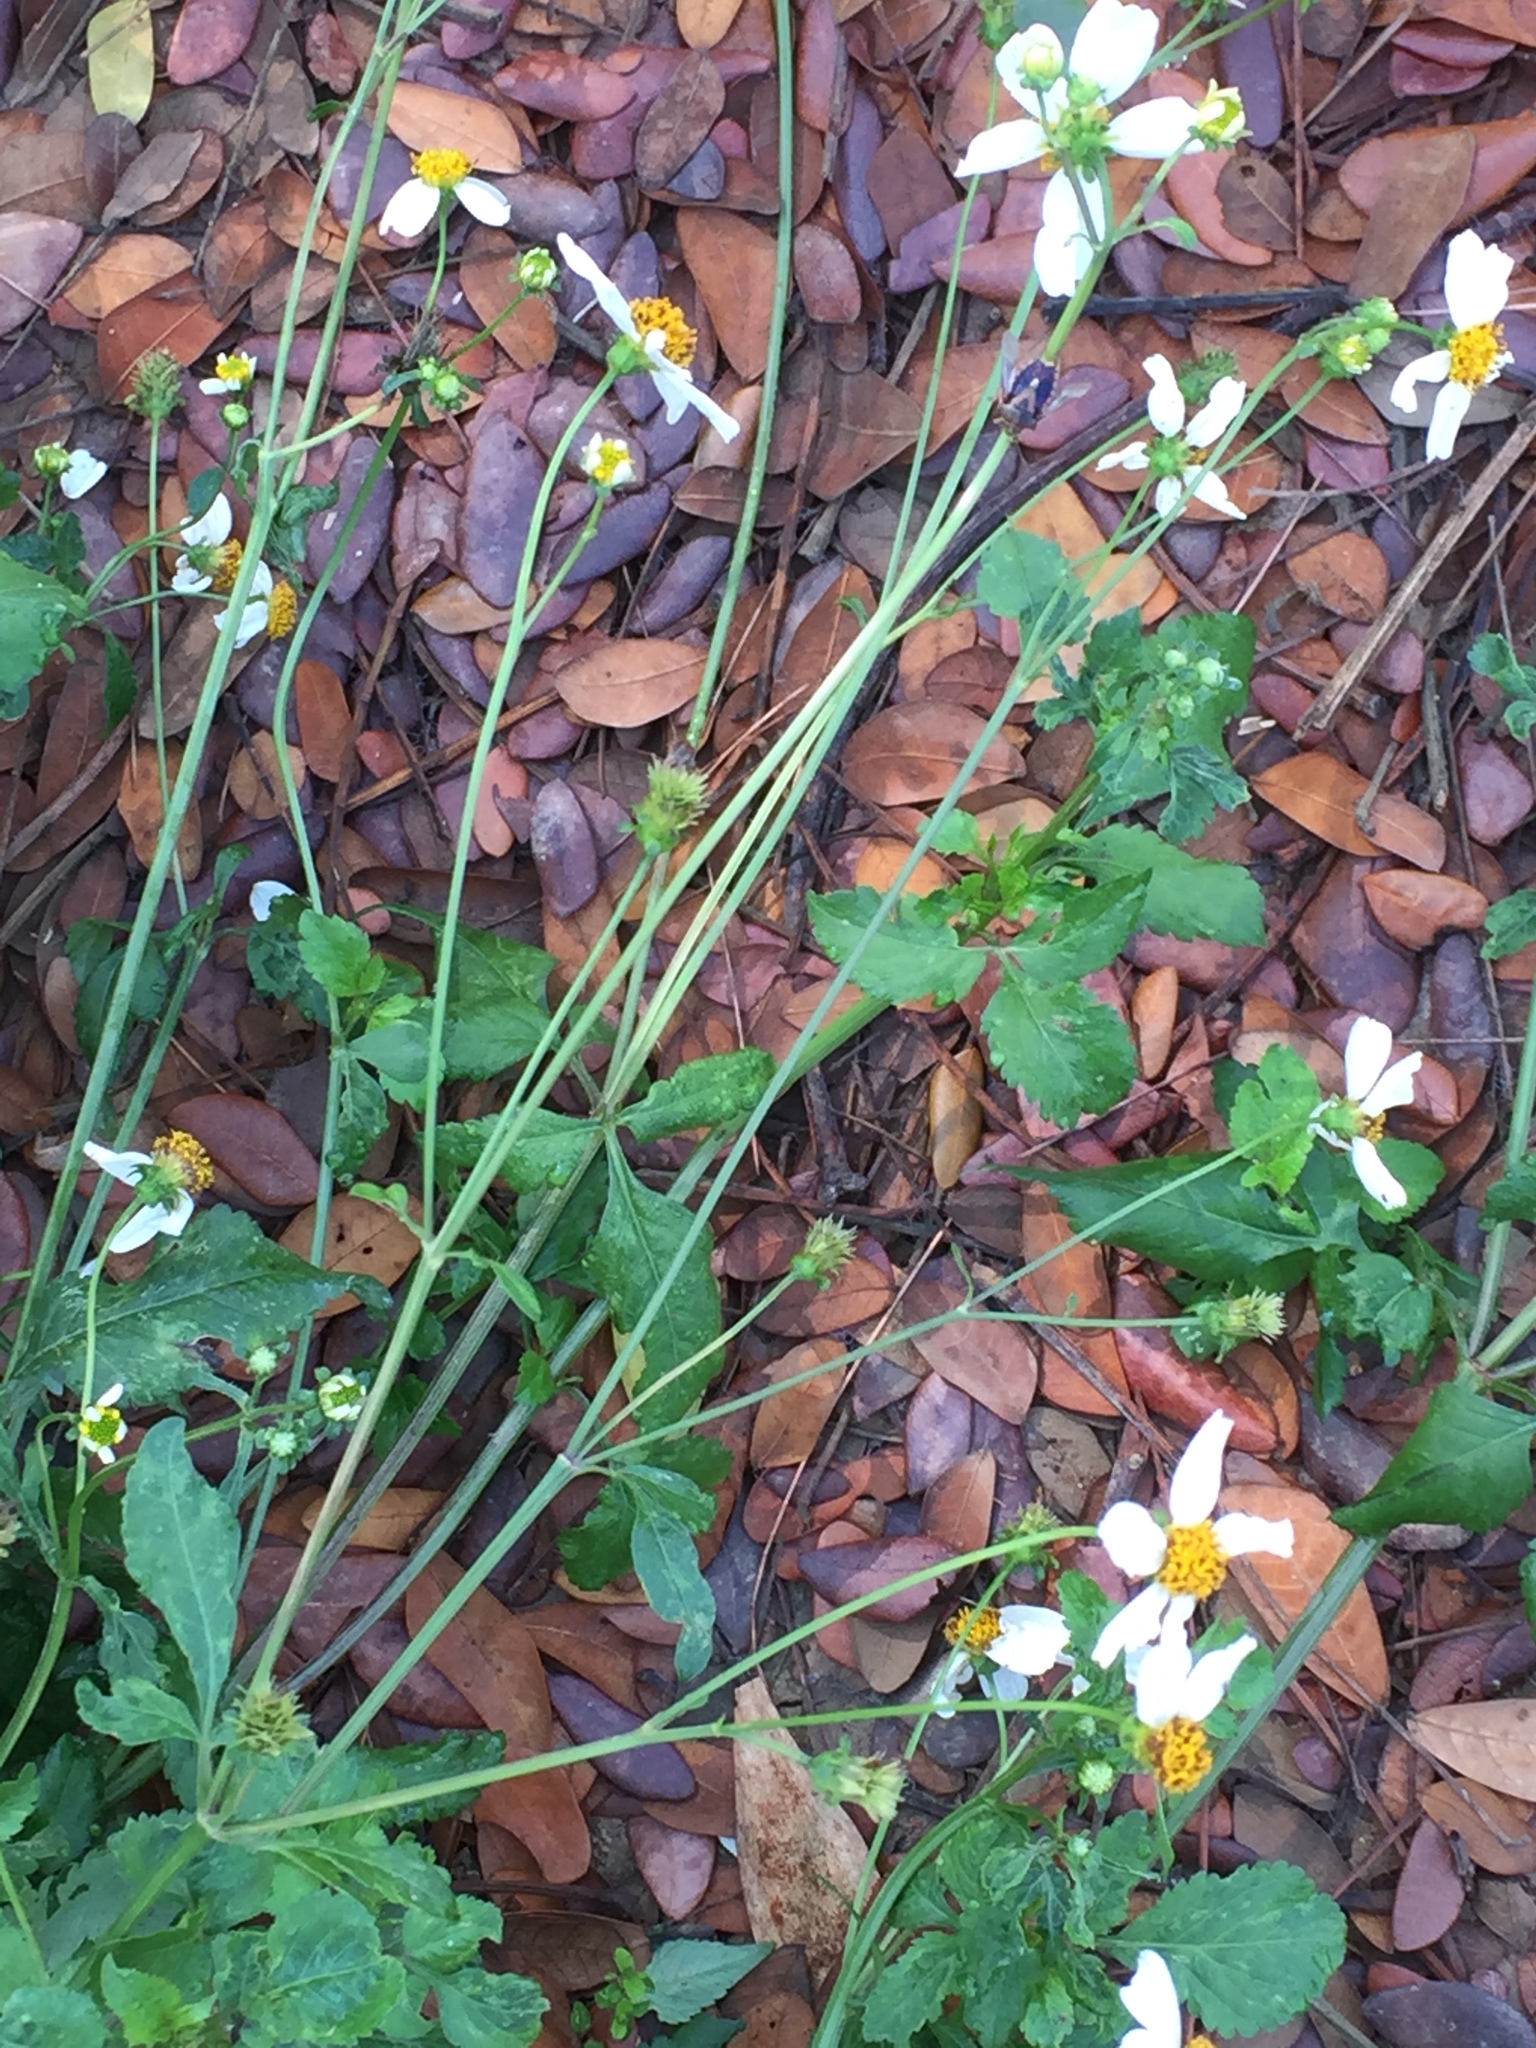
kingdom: Plantae
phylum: Tracheophyta
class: Magnoliopsida
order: Asterales
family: Asteraceae
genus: Bidens
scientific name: Bidens pilosa
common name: Black-jack
